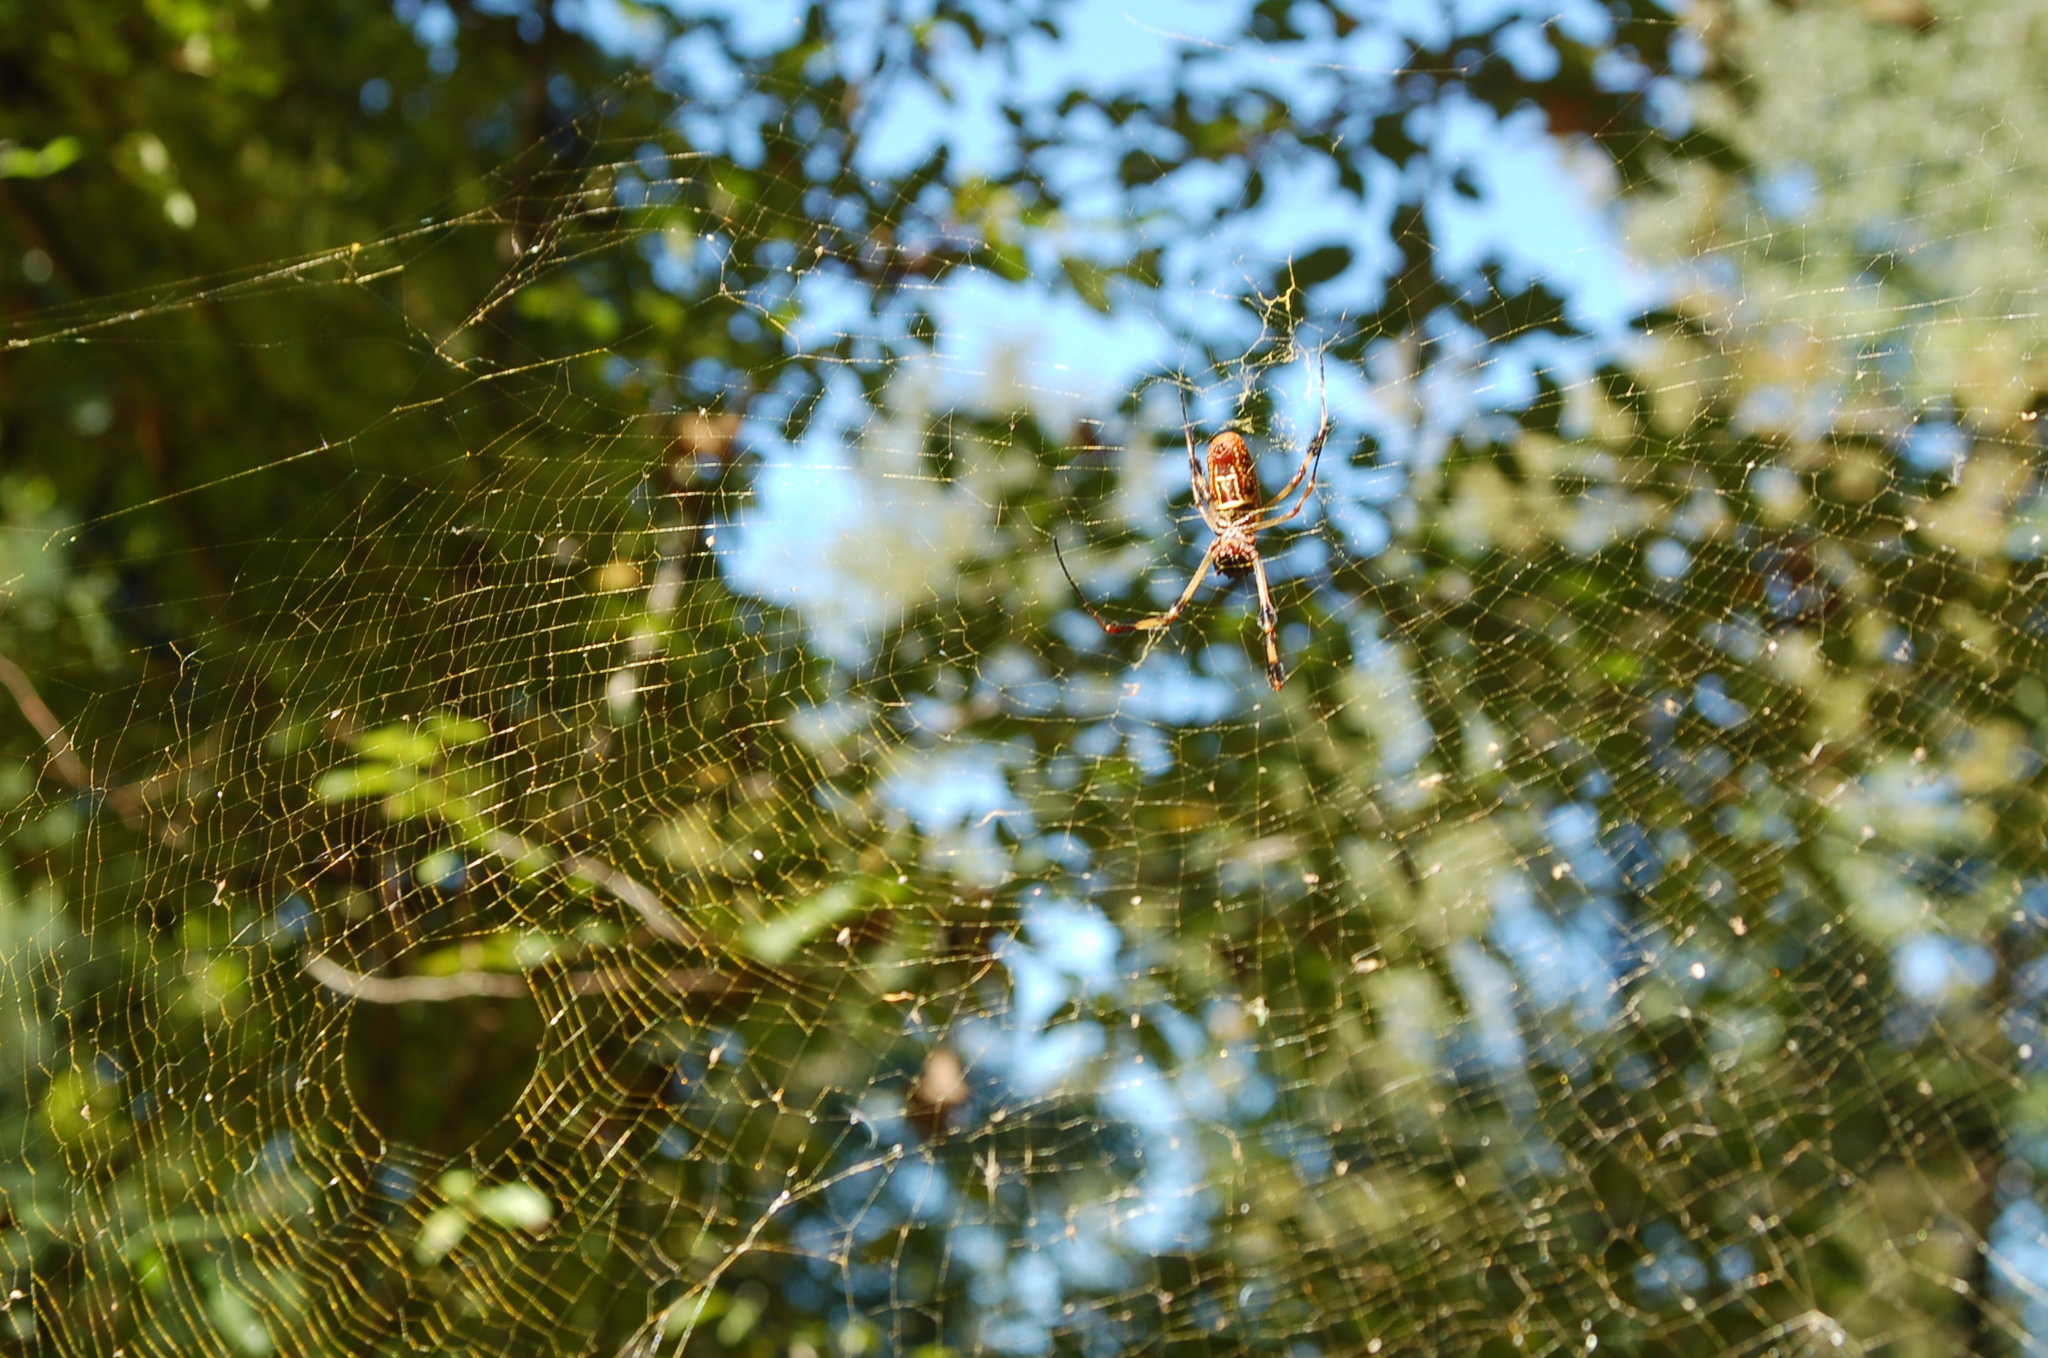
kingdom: Animalia
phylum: Arthropoda
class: Arachnida
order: Araneae
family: Araneidae
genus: Trichonephila
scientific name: Trichonephila clavipes
